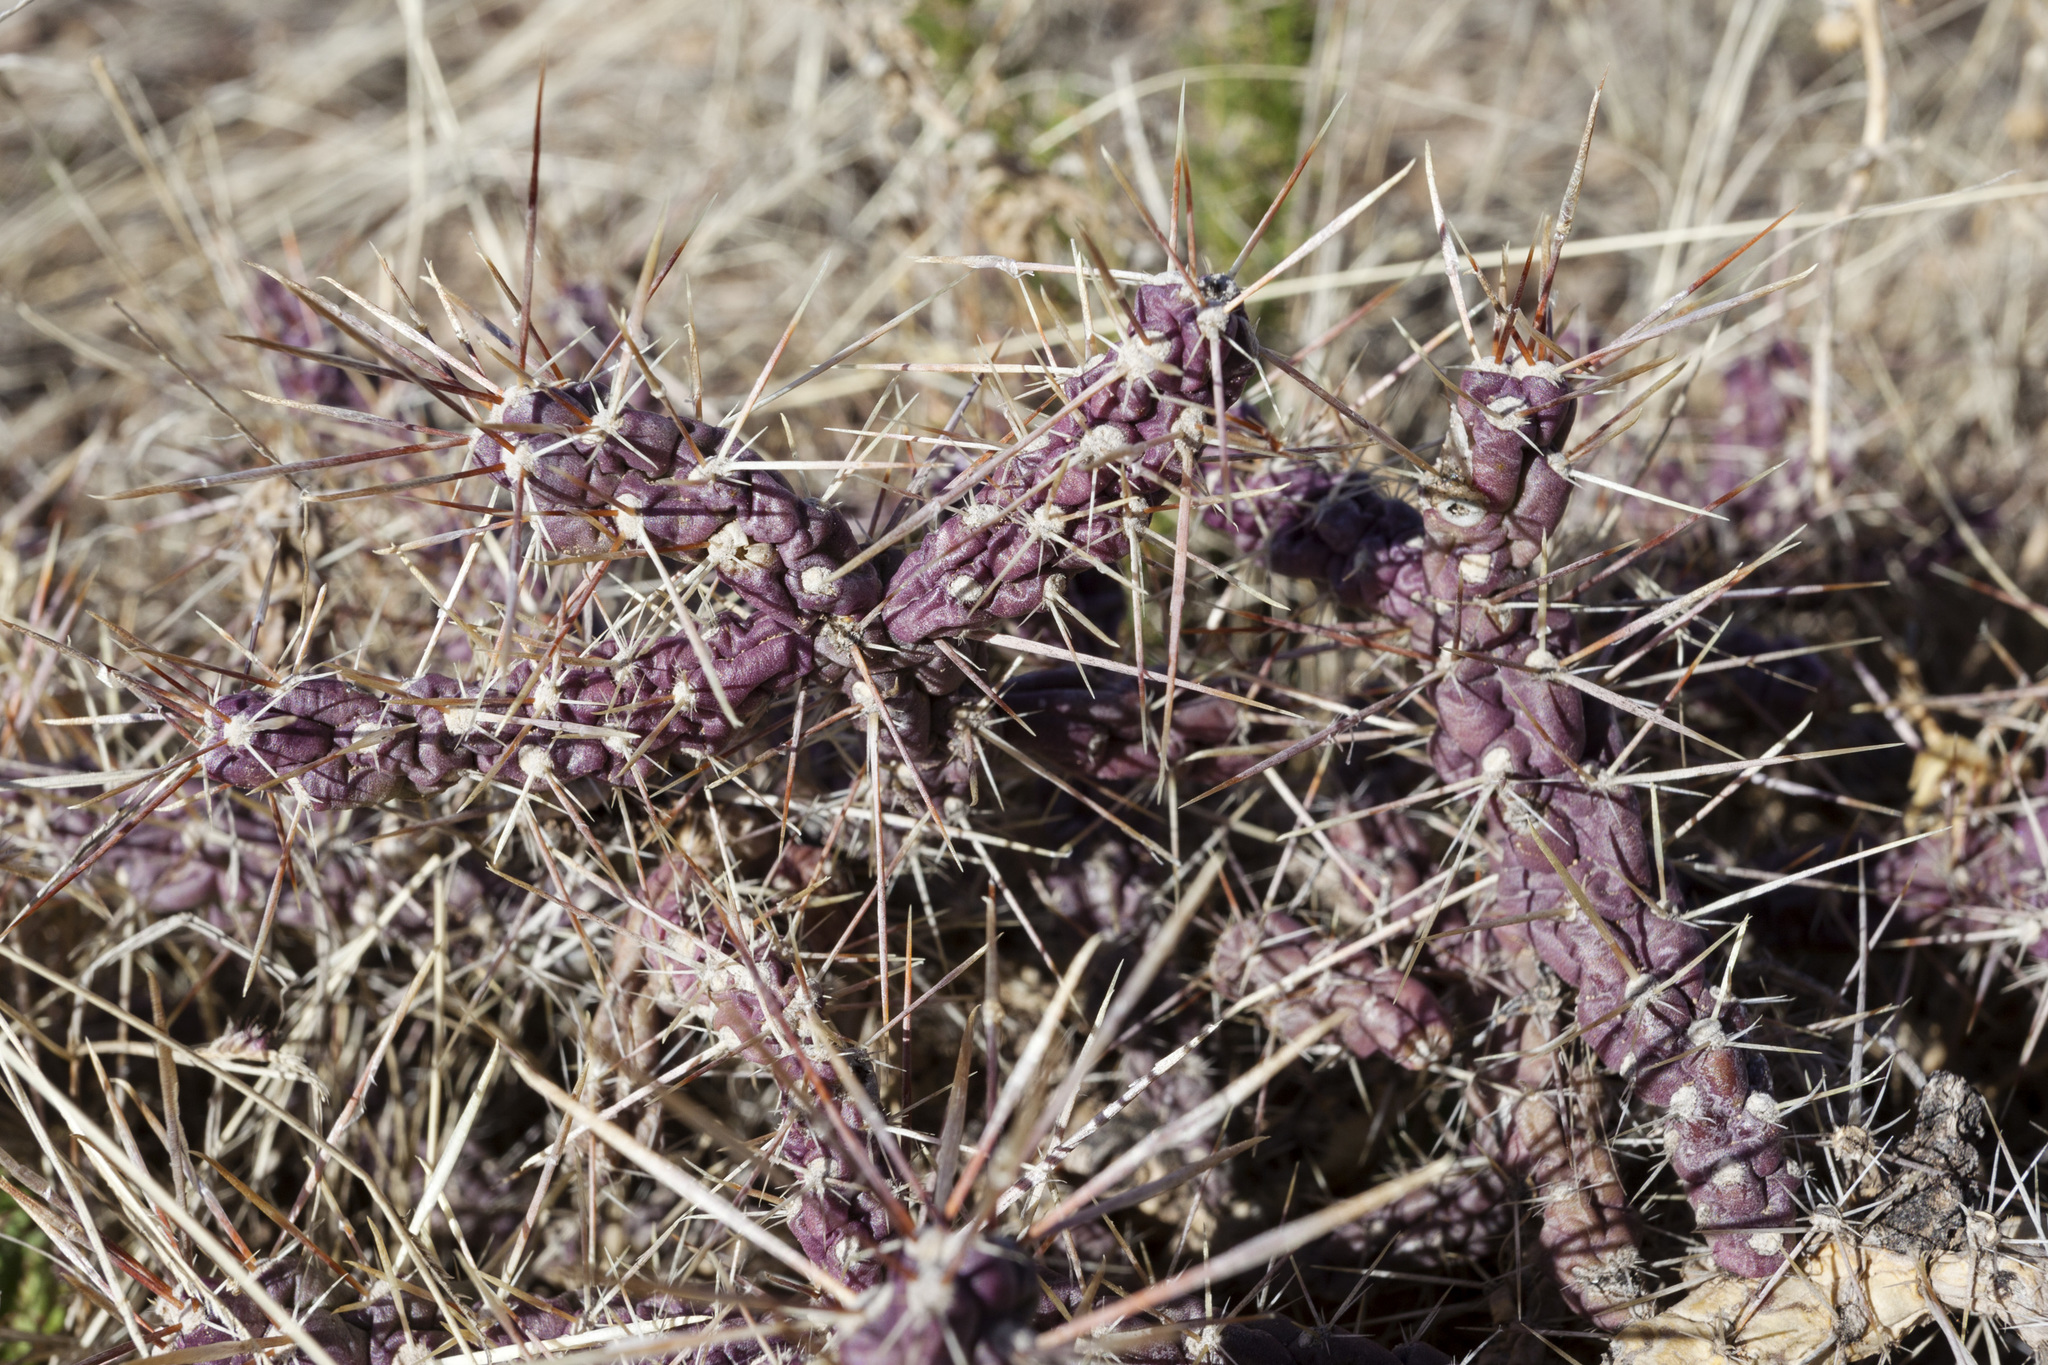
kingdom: Plantae
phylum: Tracheophyta
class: Magnoliopsida
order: Caryophyllales
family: Cactaceae
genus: Cylindropuntia
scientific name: Cylindropuntia davisii
